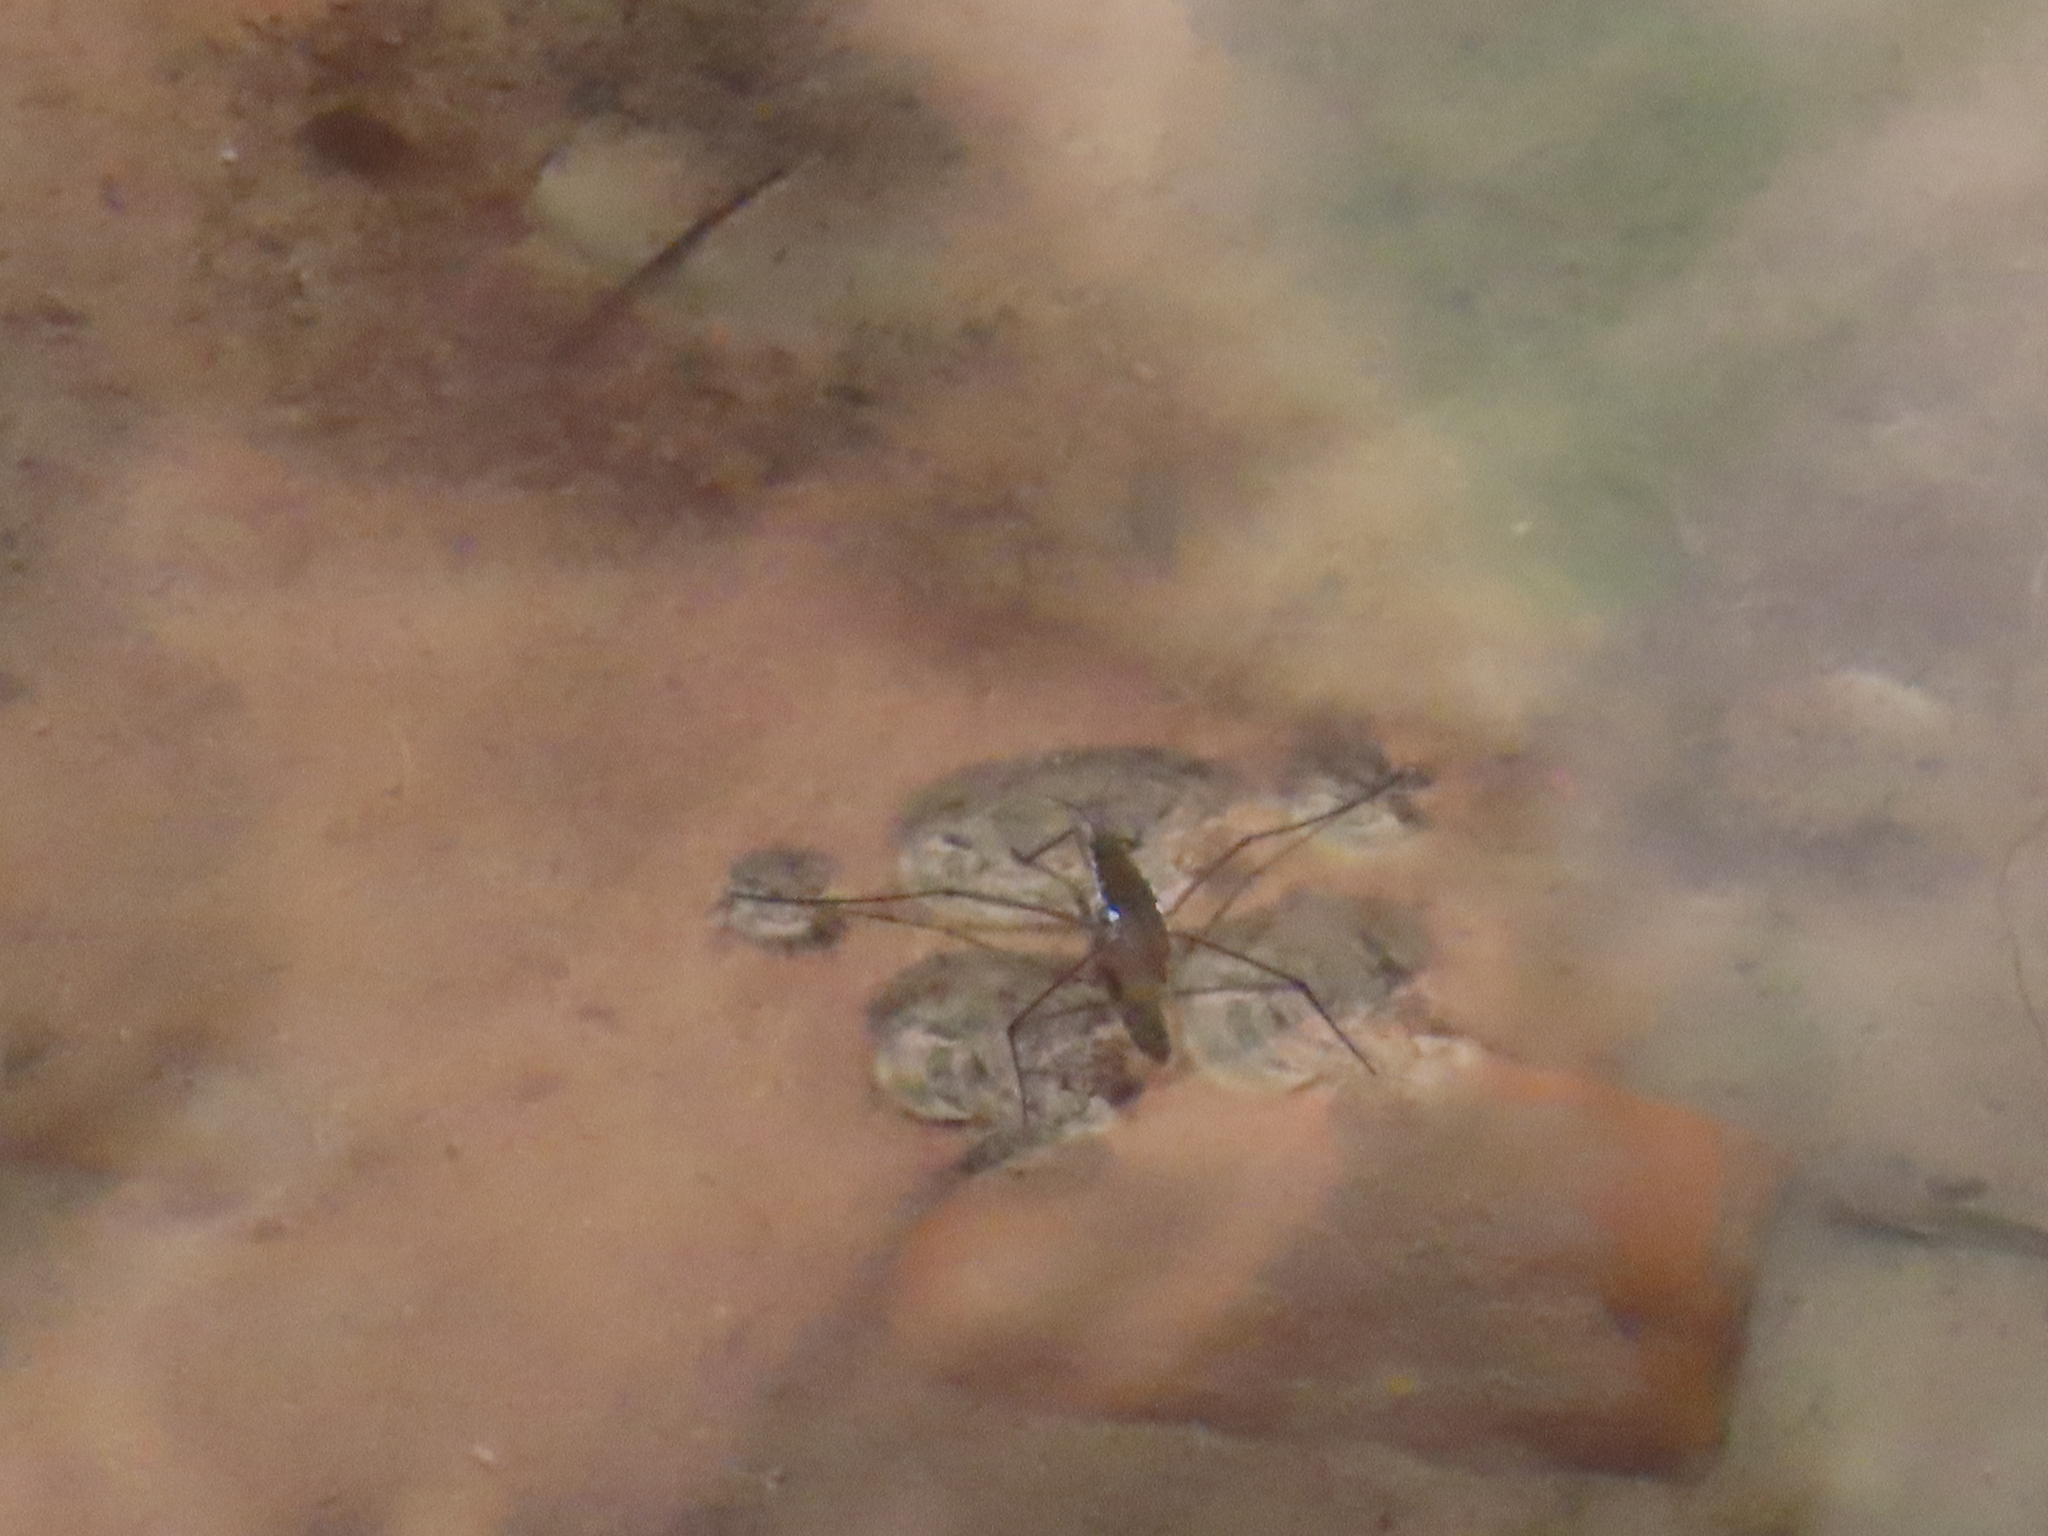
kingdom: Animalia
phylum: Arthropoda
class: Insecta
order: Hemiptera
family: Gerridae
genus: Aquarius
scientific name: Aquarius remigis
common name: Common water strider
